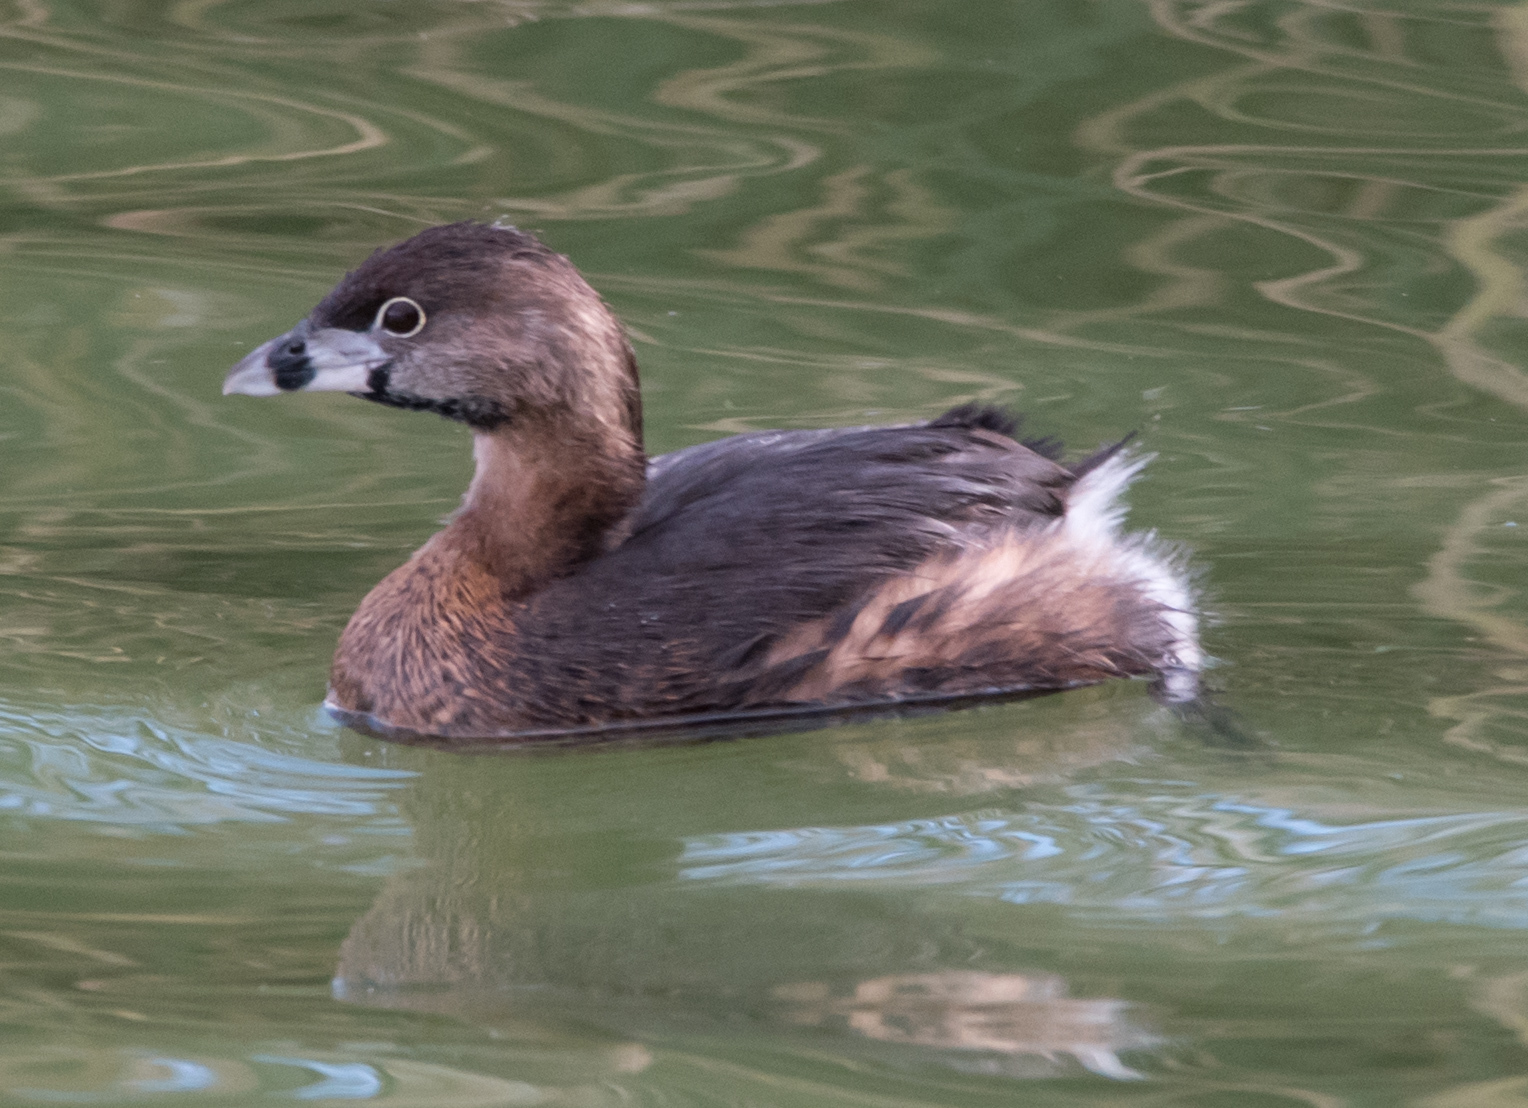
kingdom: Animalia
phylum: Chordata
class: Aves
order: Podicipediformes
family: Podicipedidae
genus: Podilymbus
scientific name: Podilymbus podiceps
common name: Pied-billed grebe
